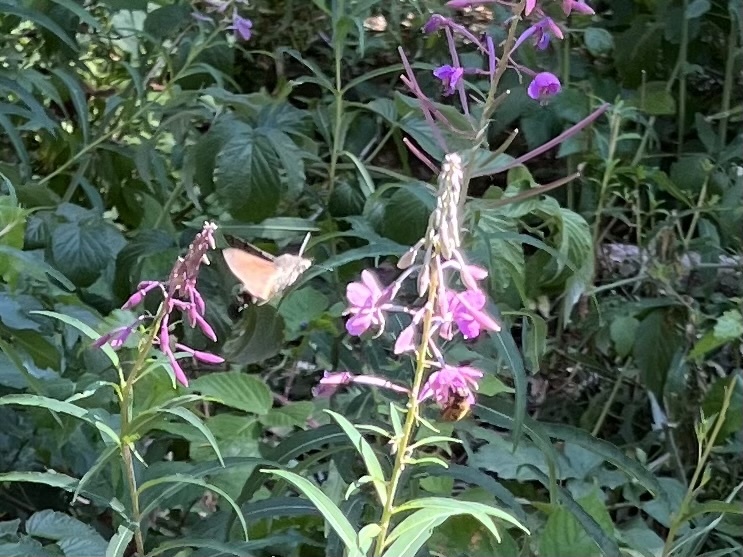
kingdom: Animalia
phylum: Arthropoda
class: Insecta
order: Lepidoptera
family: Sphingidae
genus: Macroglossum
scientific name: Macroglossum stellatarum
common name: Humming-bird hawk-moth
